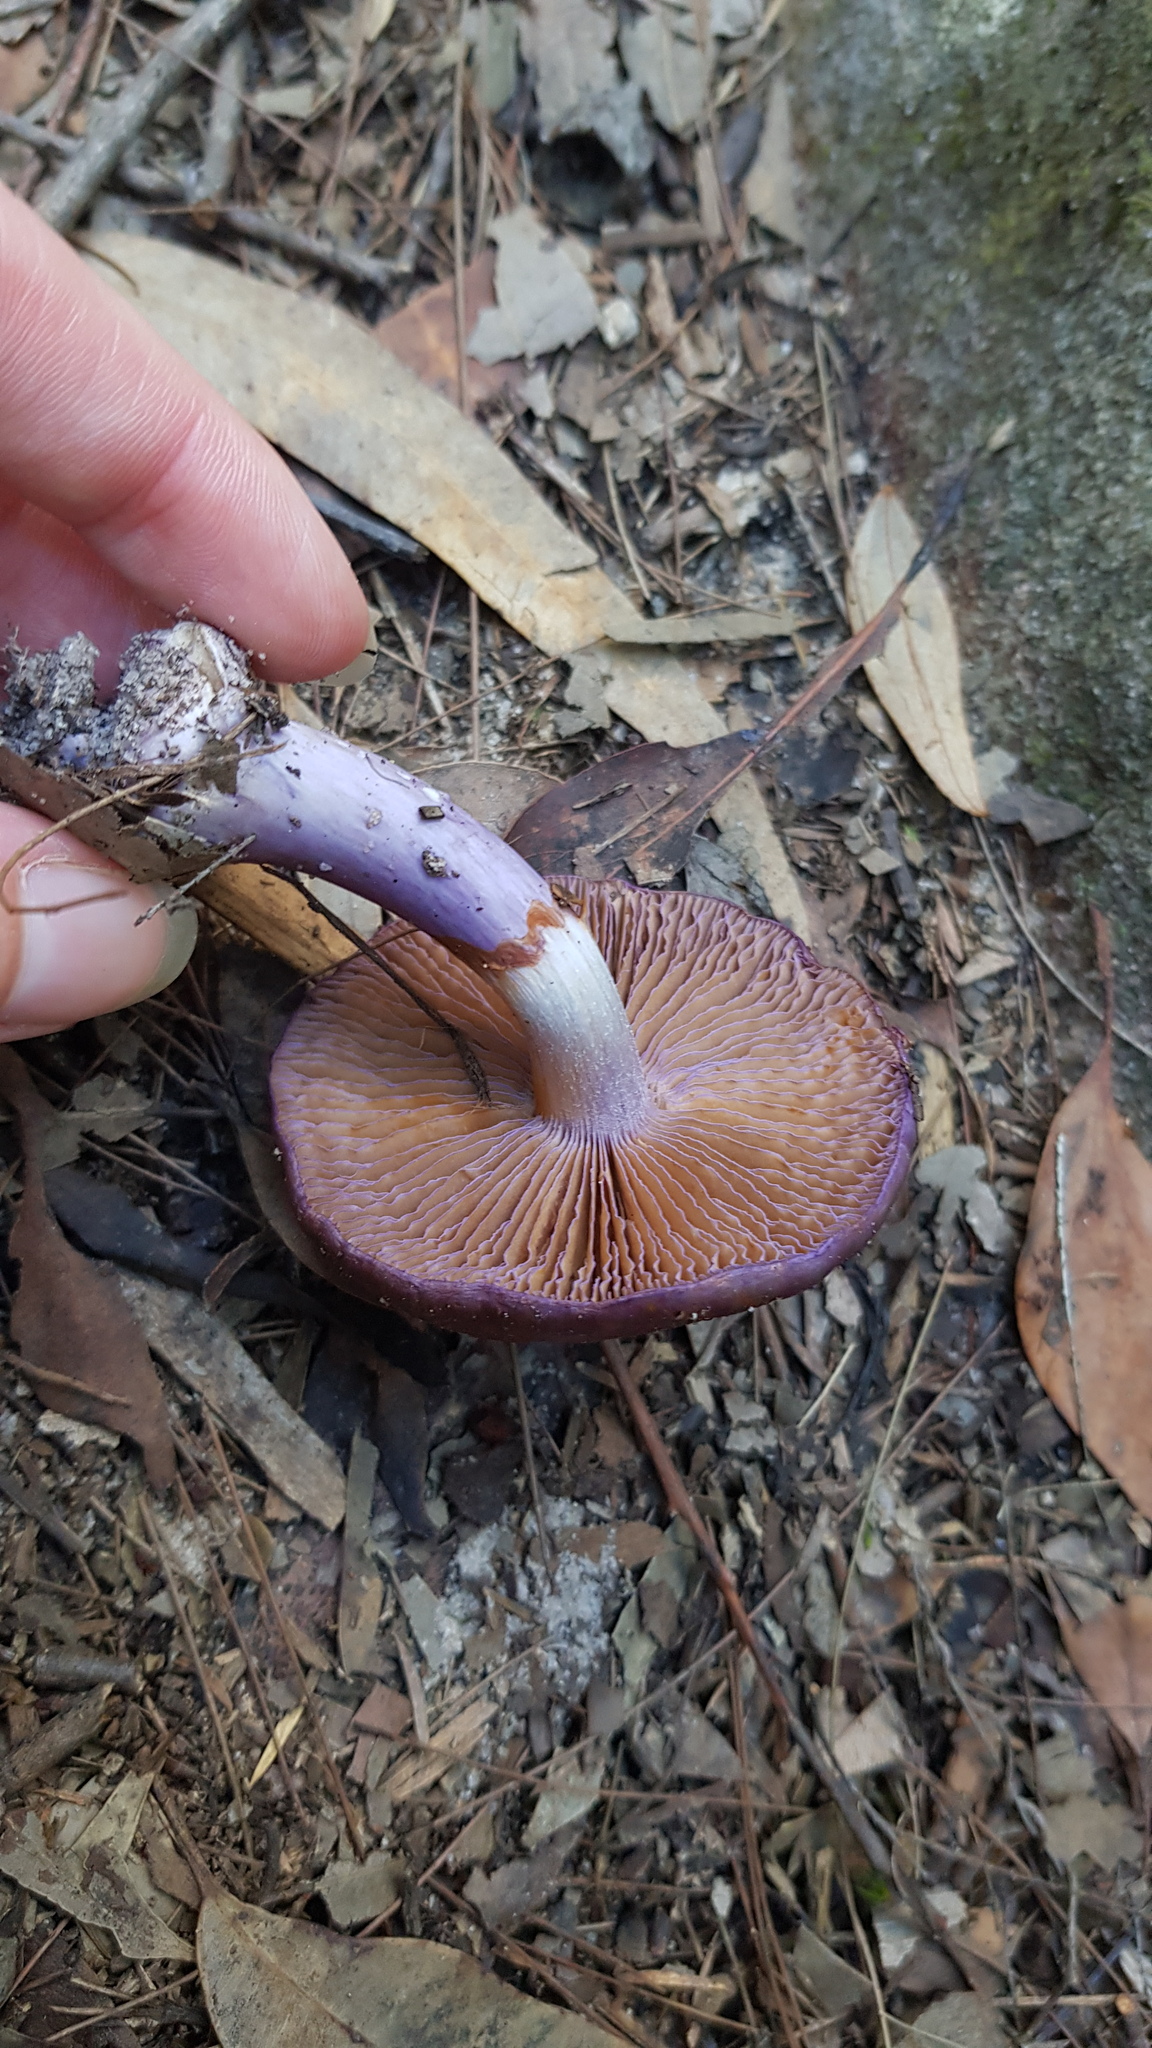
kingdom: Fungi
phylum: Basidiomycota
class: Agaricomycetes
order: Agaricales
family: Cortinariaceae
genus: Cortinarius
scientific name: Cortinarius archeri
